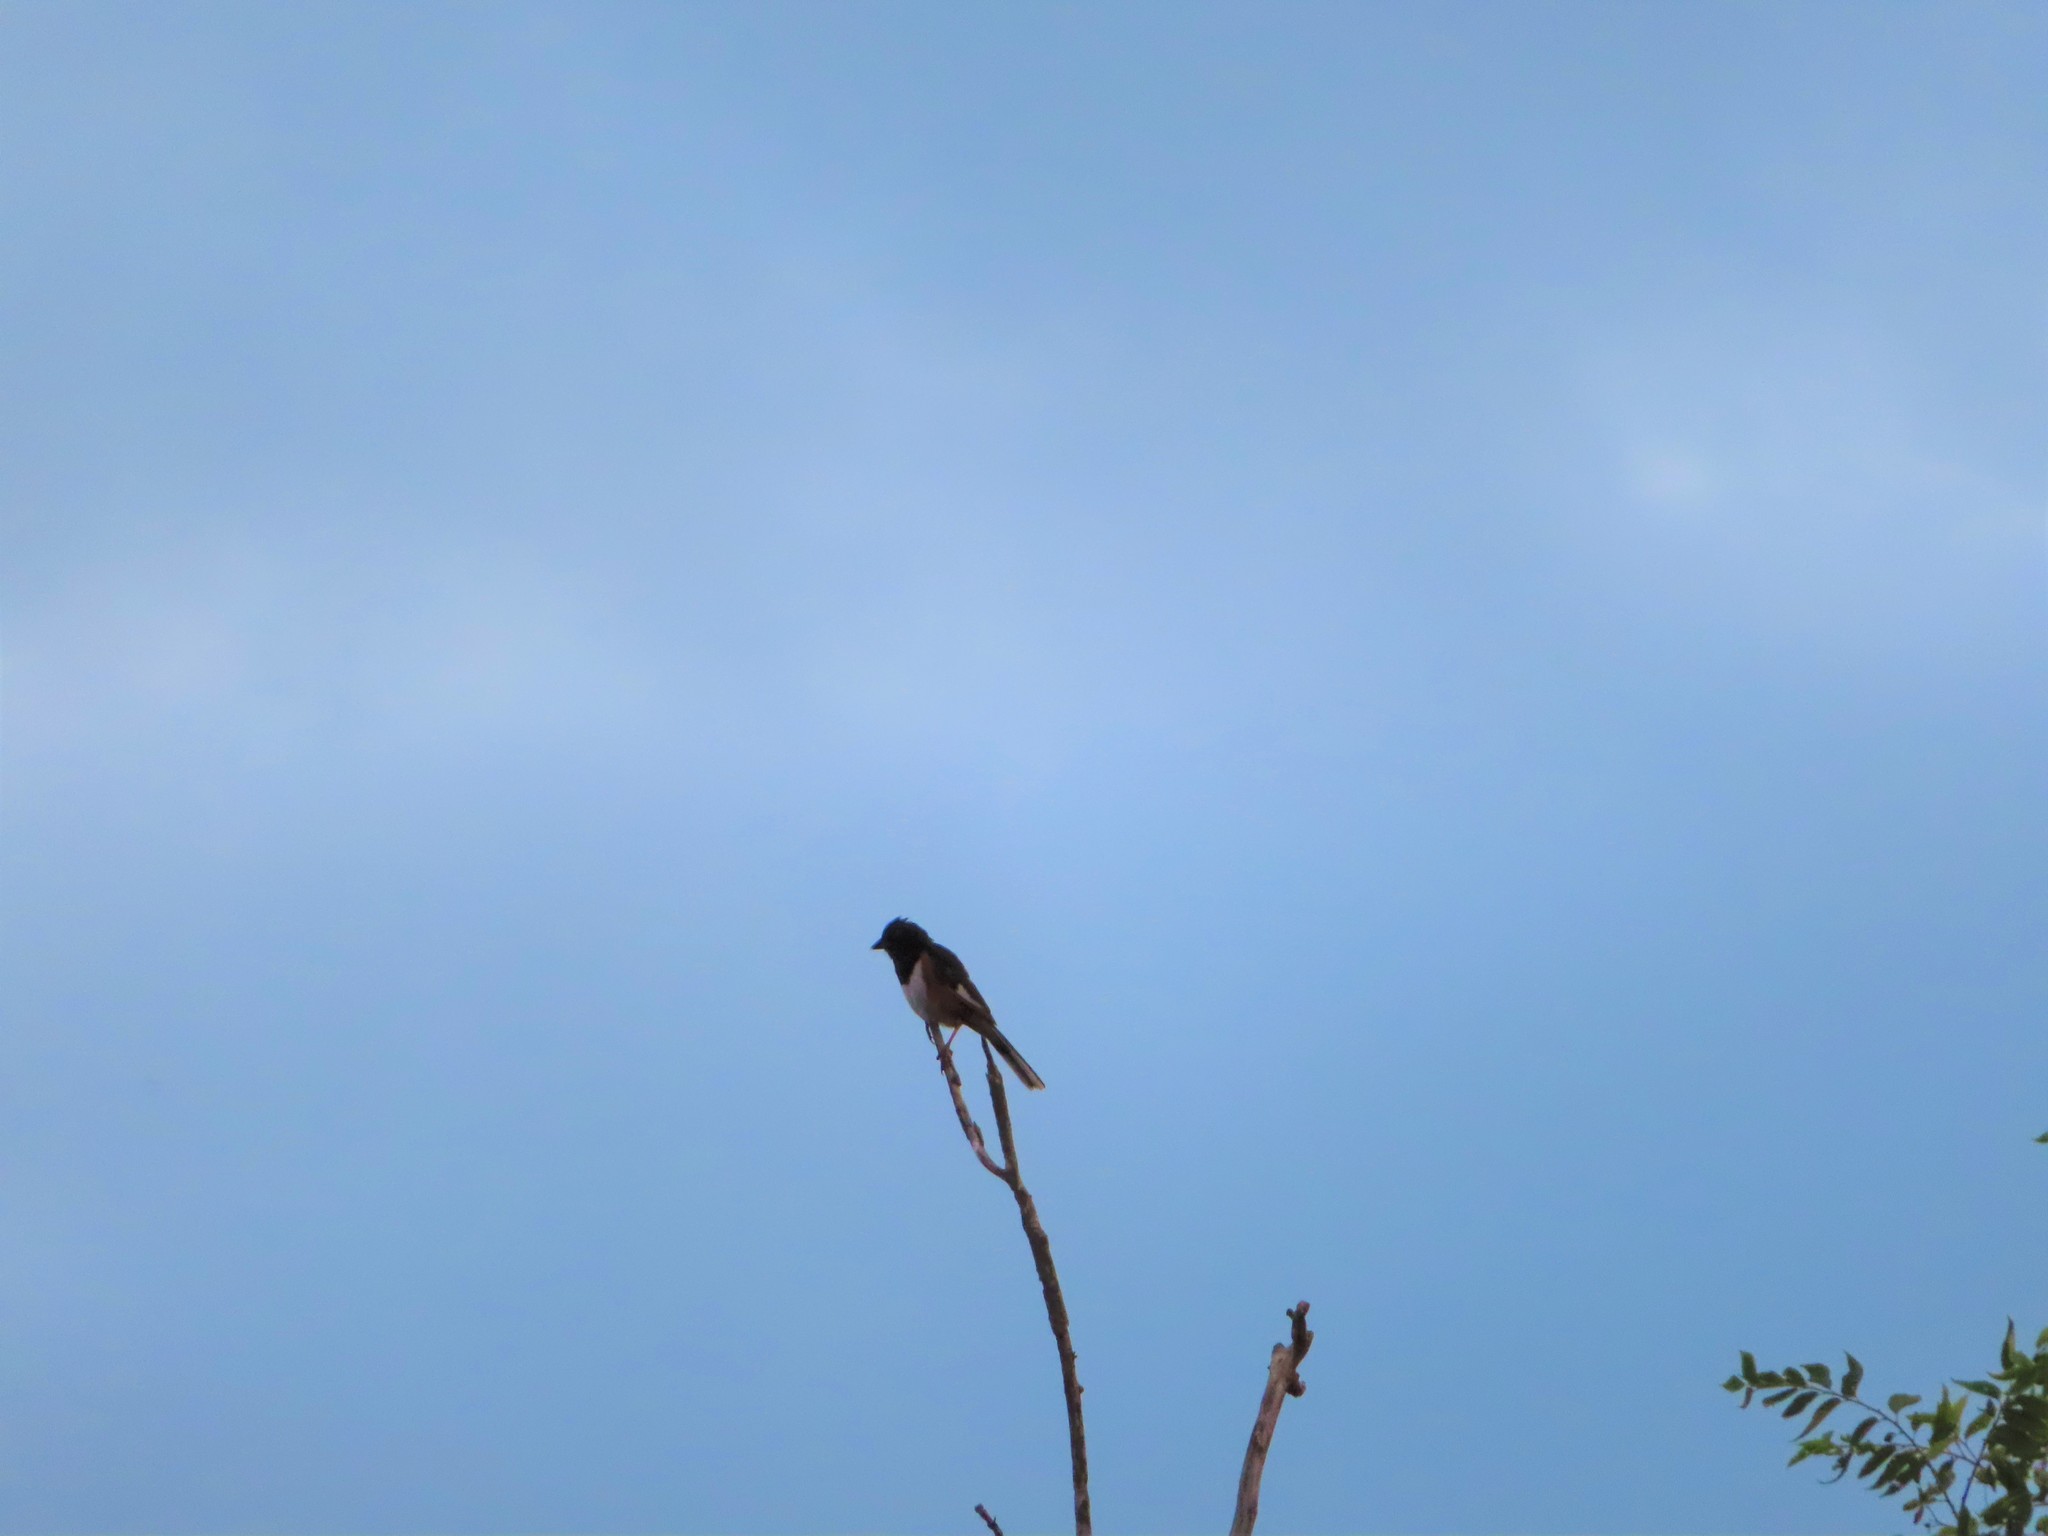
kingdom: Animalia
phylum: Chordata
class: Aves
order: Passeriformes
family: Passerellidae
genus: Pipilo
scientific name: Pipilo erythrophthalmus
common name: Eastern towhee
